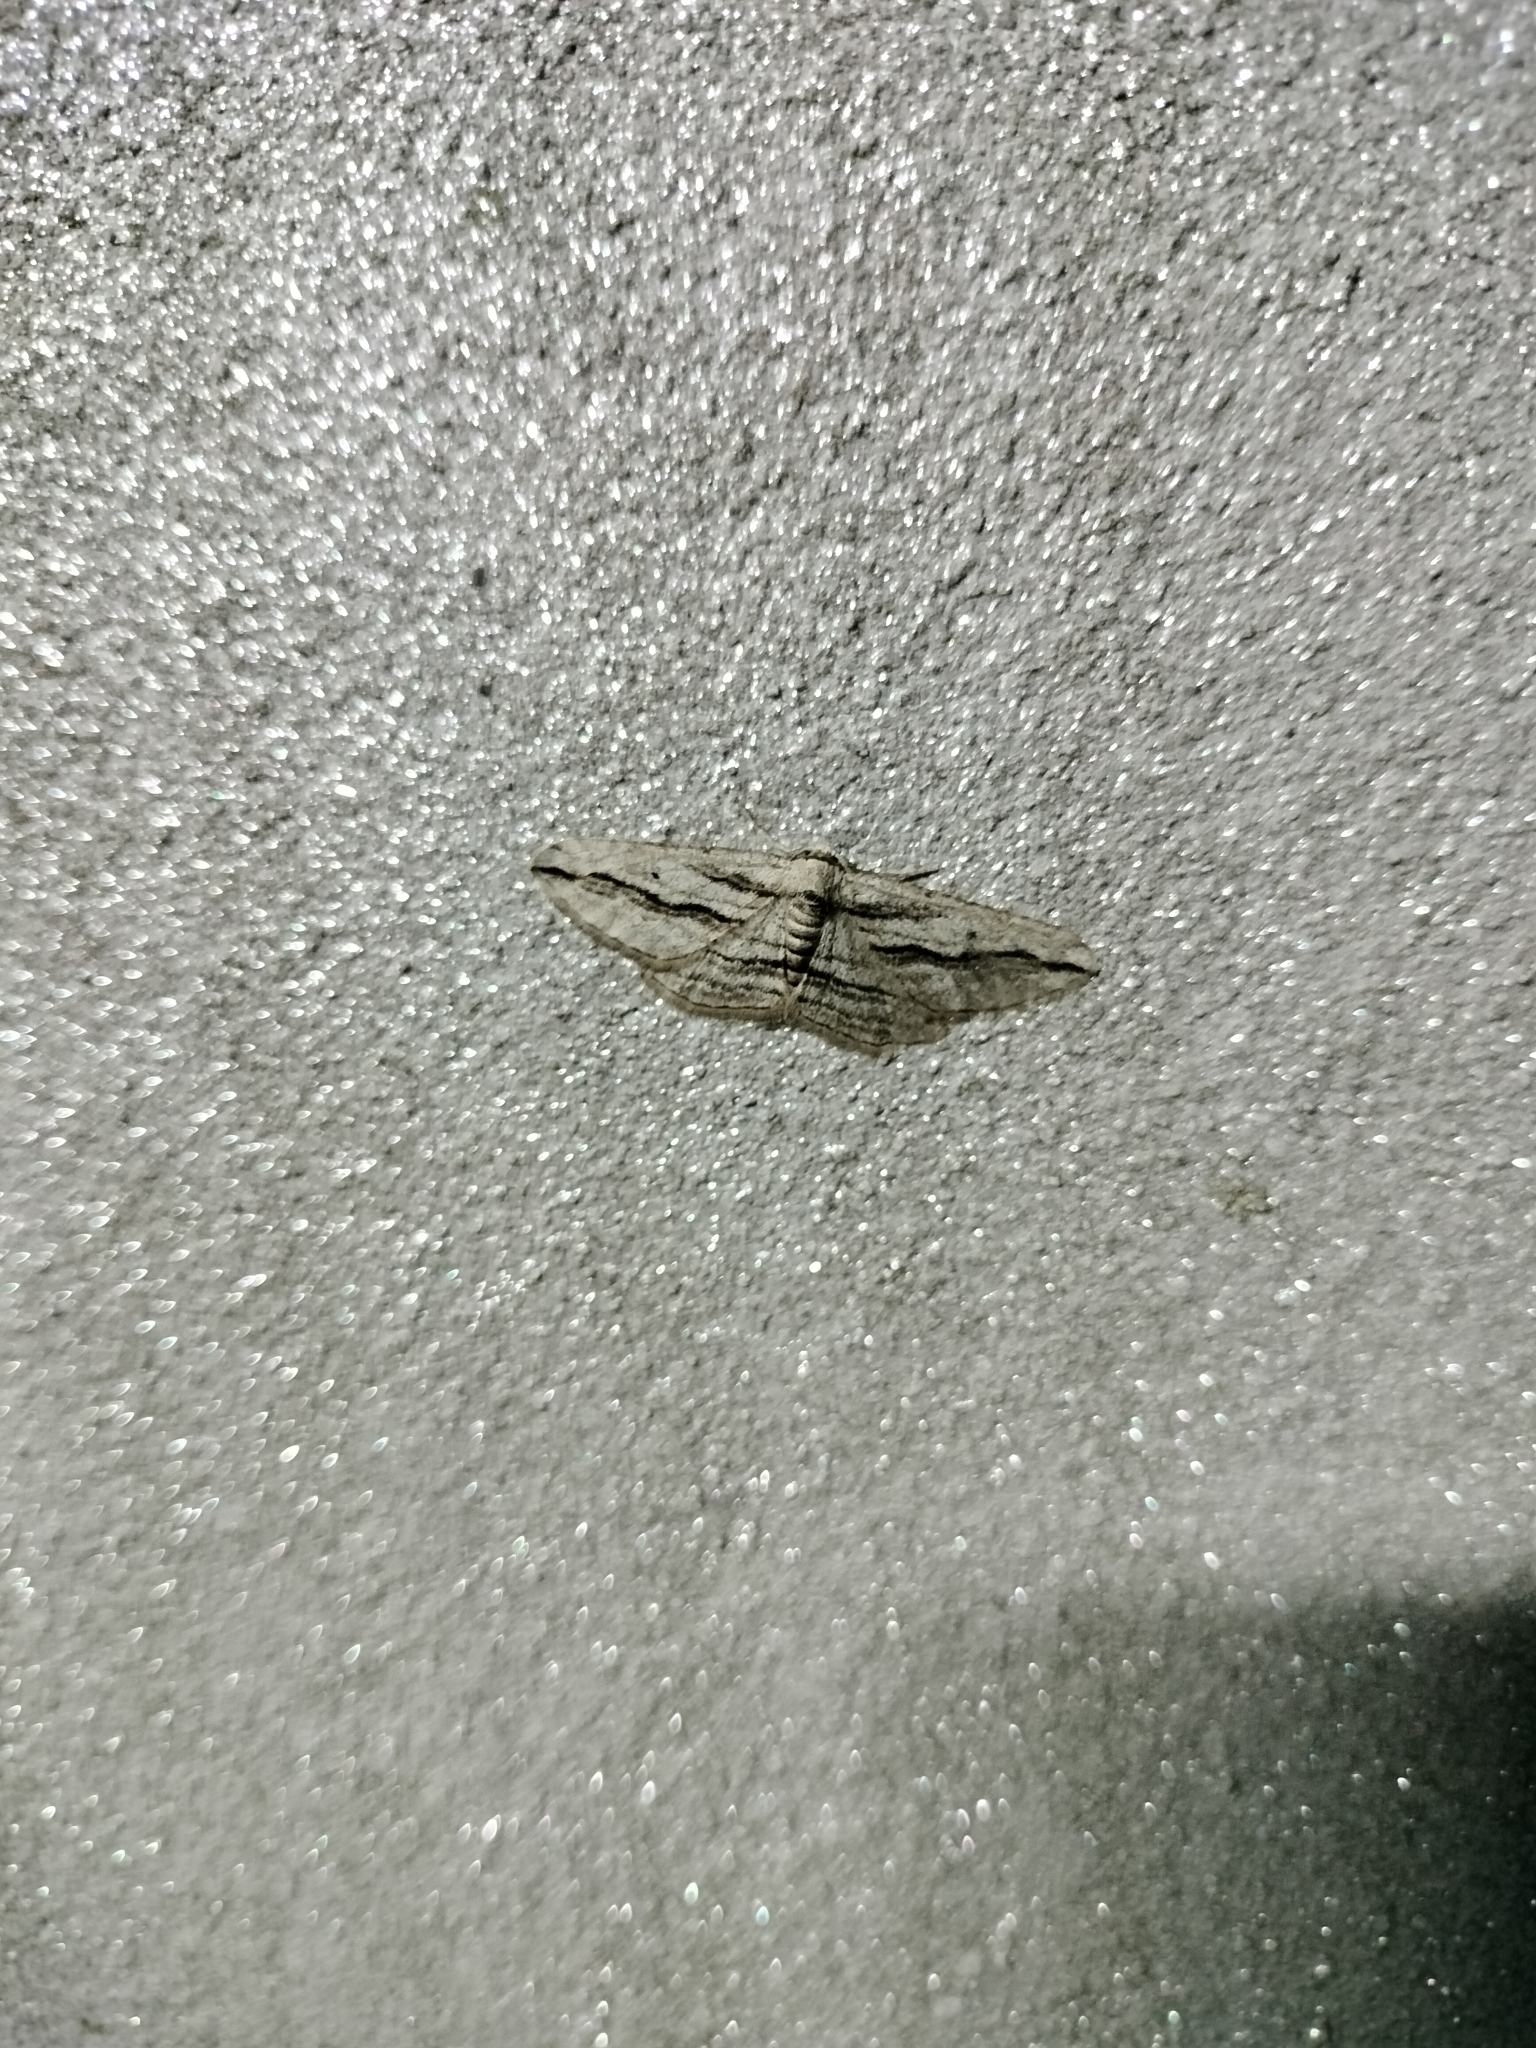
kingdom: Animalia
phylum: Arthropoda
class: Insecta
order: Lepidoptera
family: Geometridae
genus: Ecleora
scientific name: Ecleora solieraria
